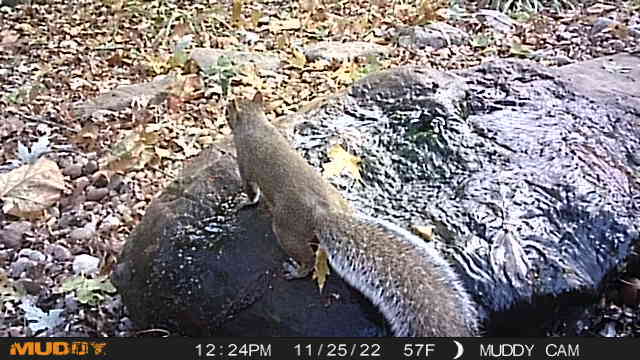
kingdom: Animalia
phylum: Chordata
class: Mammalia
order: Rodentia
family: Sciuridae
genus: Sciurus
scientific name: Sciurus carolinensis
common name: Eastern gray squirrel
